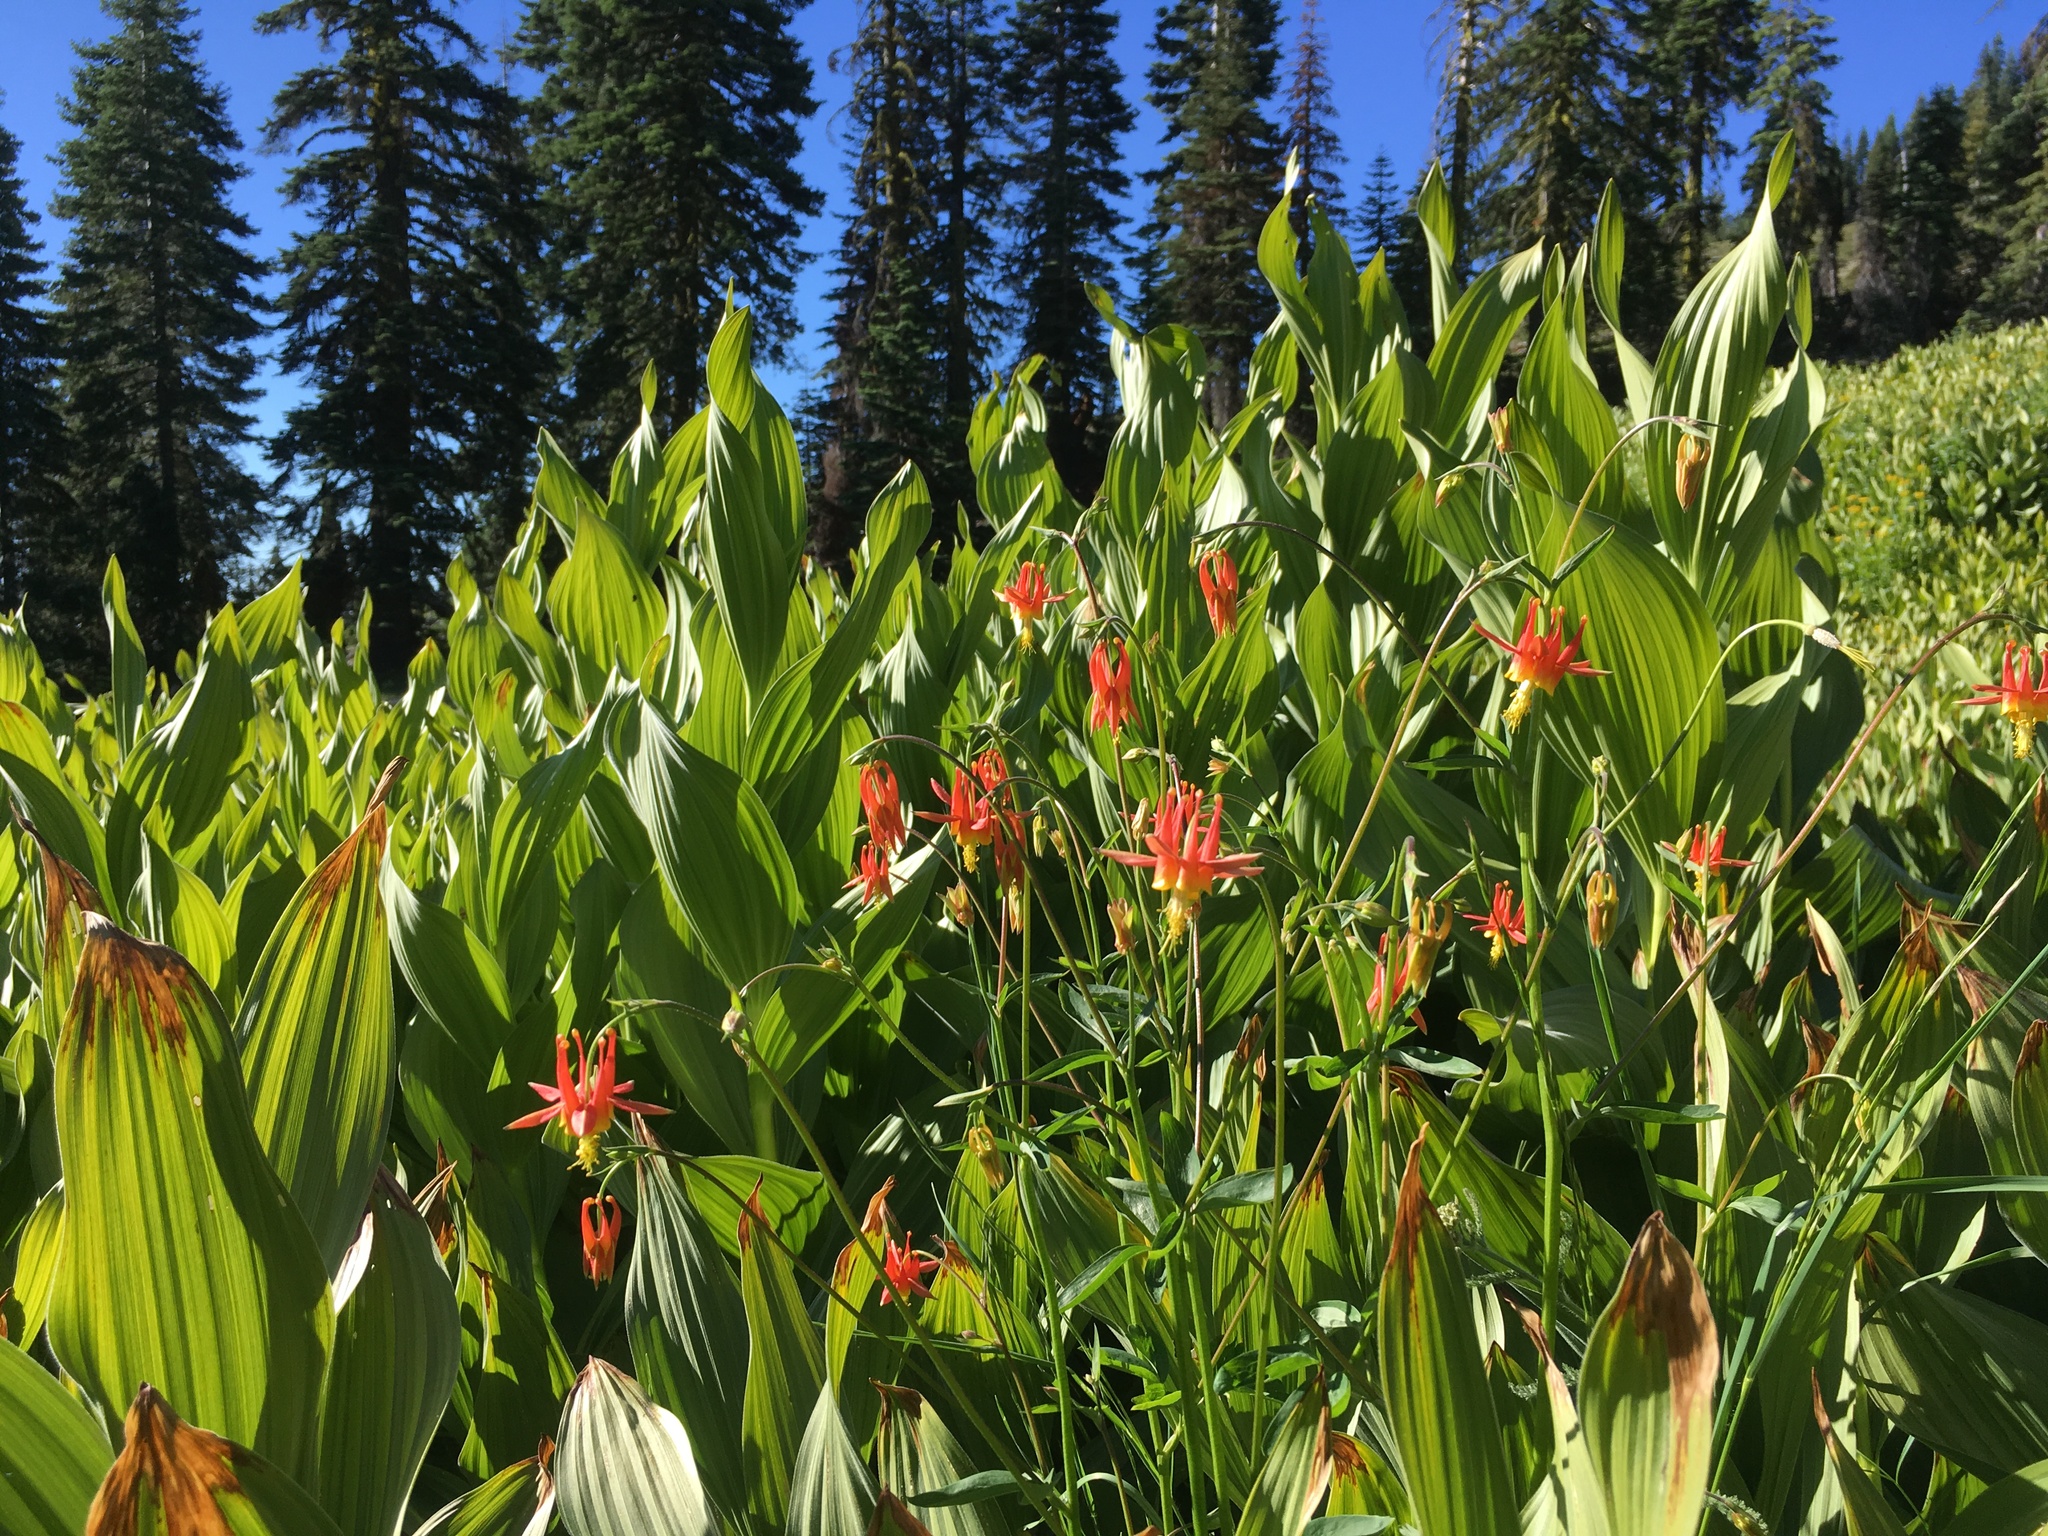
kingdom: Plantae
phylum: Tracheophyta
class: Magnoliopsida
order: Ranunculales
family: Ranunculaceae
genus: Aquilegia
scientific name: Aquilegia formosa
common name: Sitka columbine
